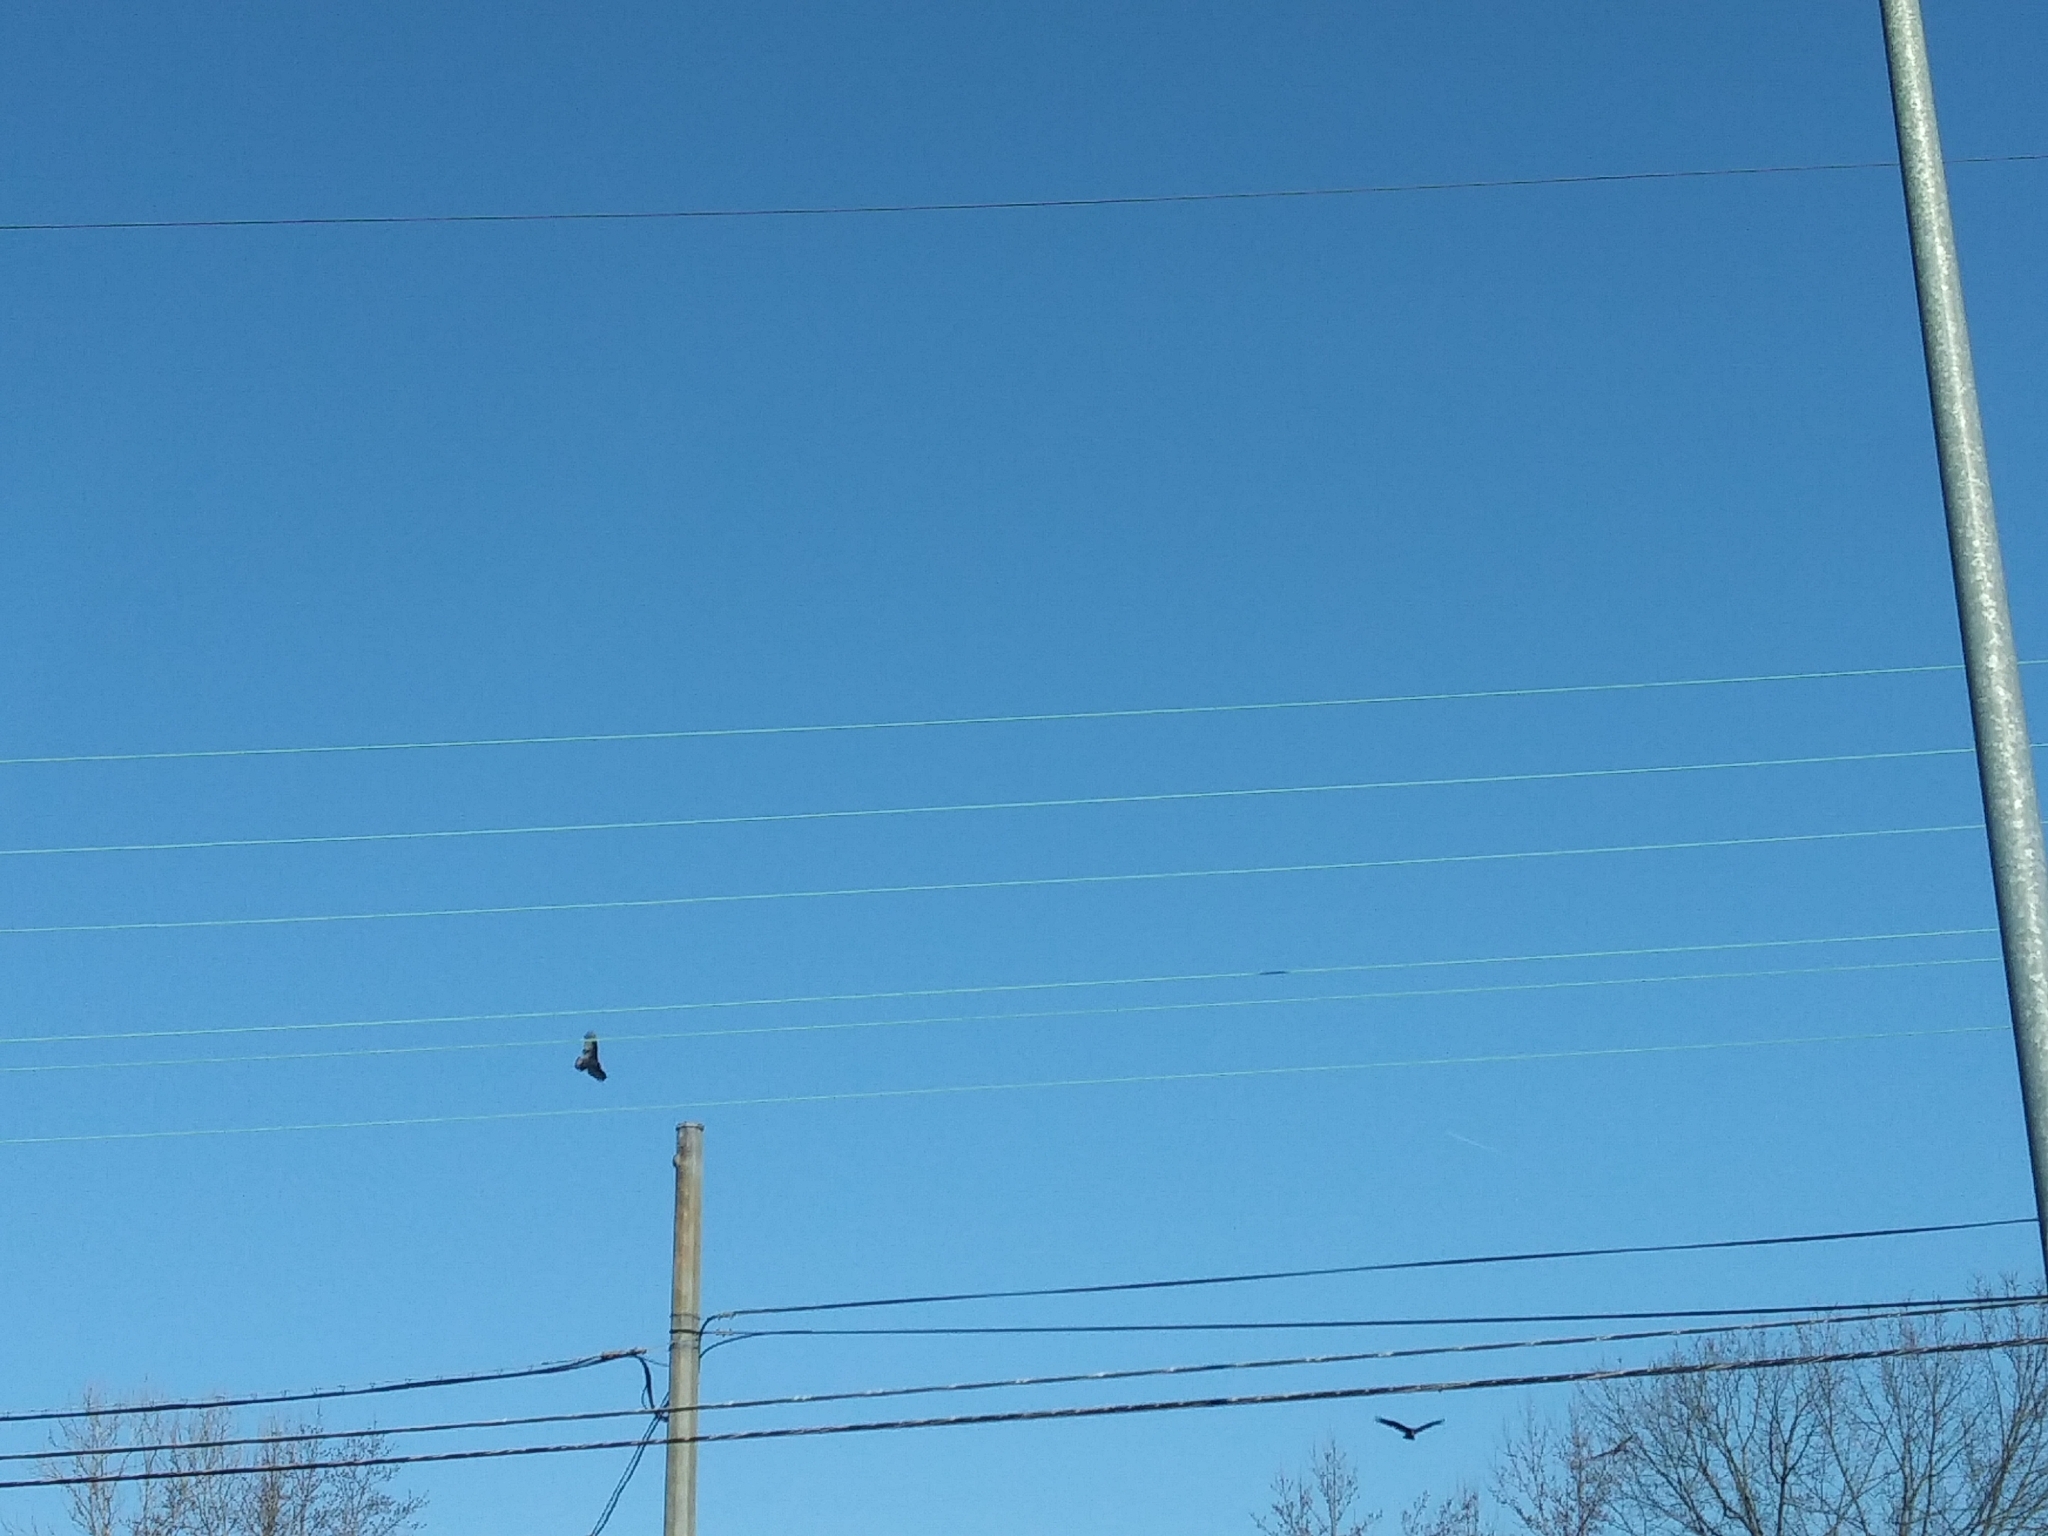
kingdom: Animalia
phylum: Chordata
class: Aves
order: Accipitriformes
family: Cathartidae
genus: Cathartes
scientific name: Cathartes aura
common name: Turkey vulture
